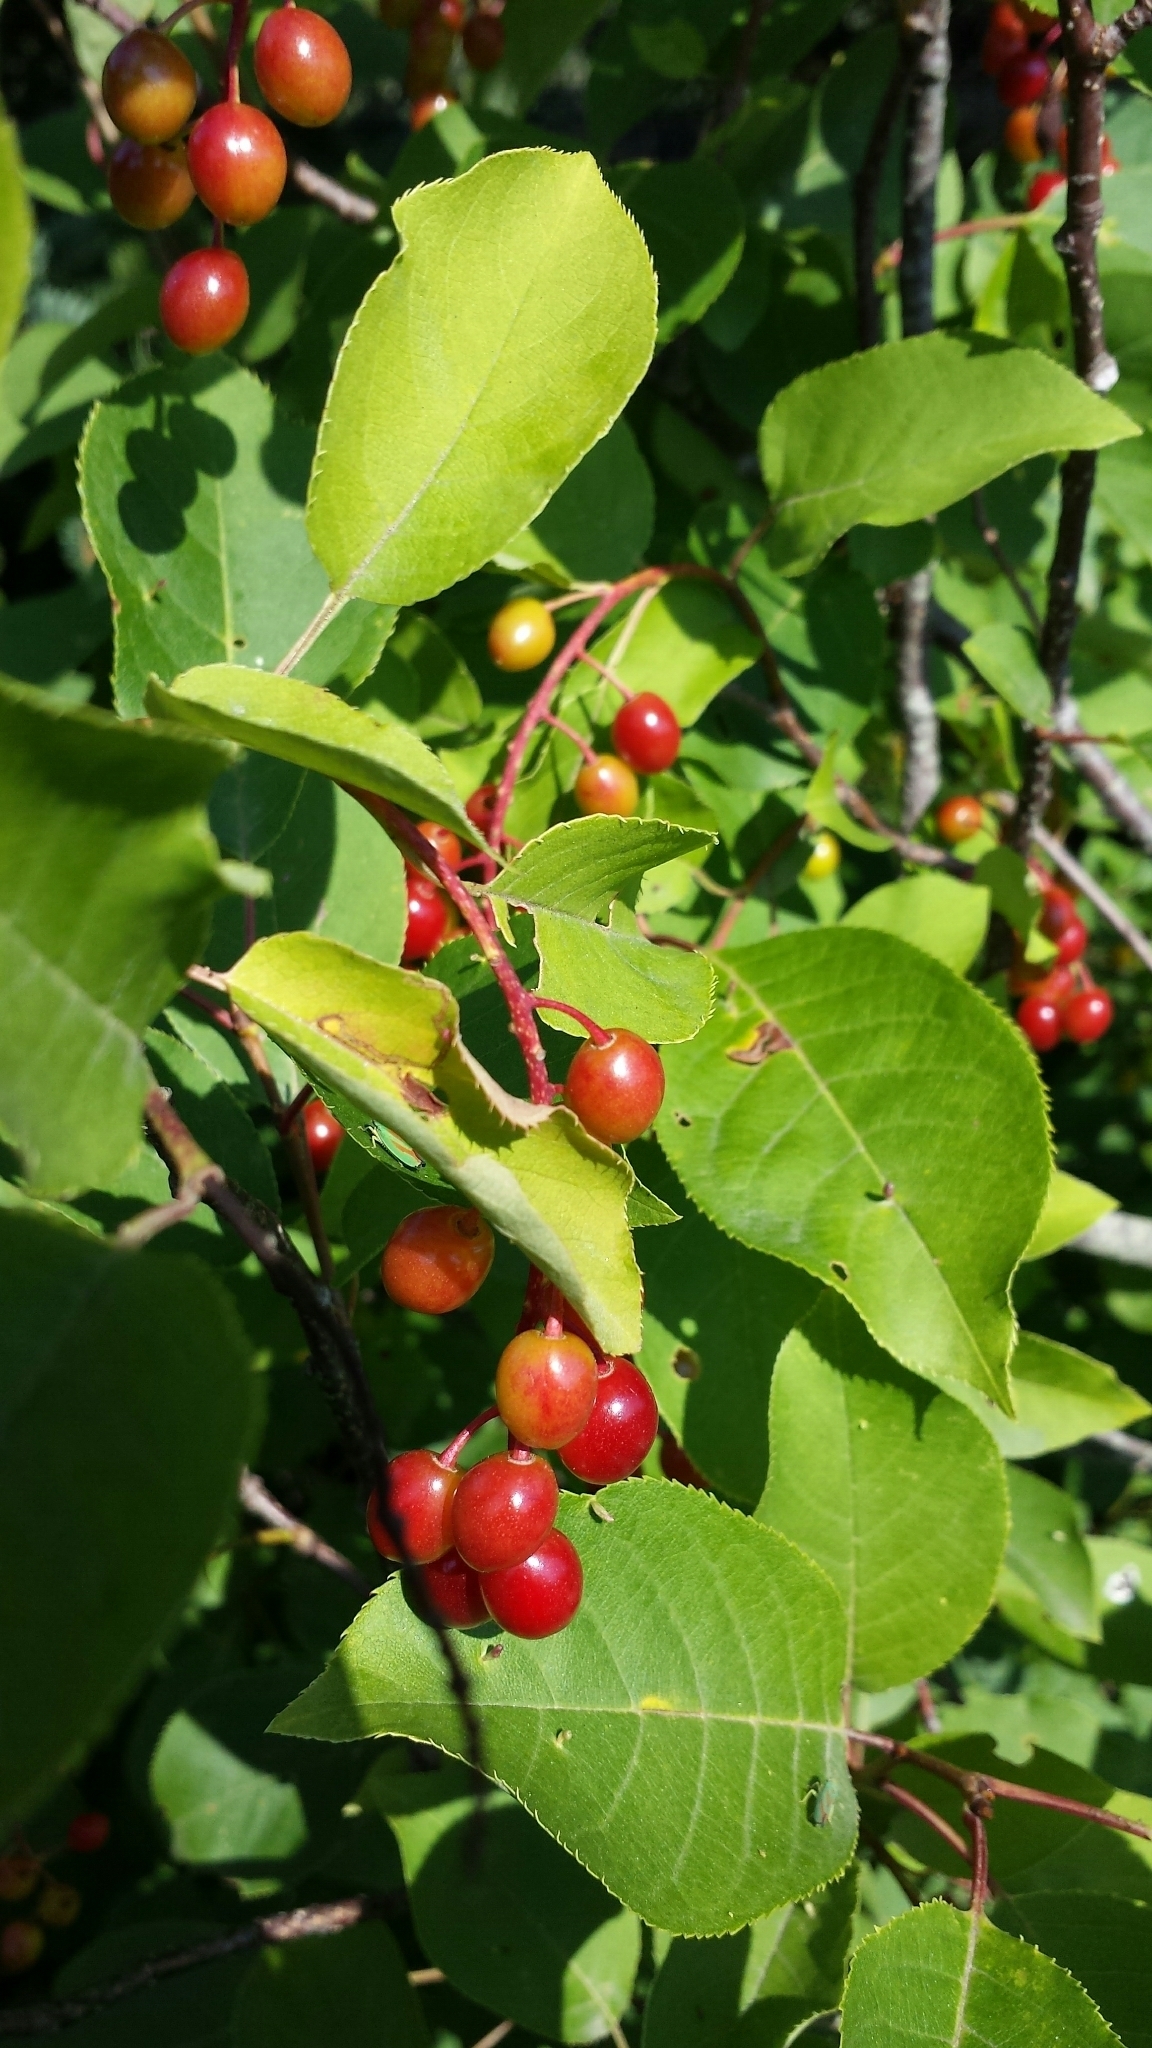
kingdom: Plantae
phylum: Tracheophyta
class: Magnoliopsida
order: Rosales
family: Rosaceae
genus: Prunus
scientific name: Prunus virginiana
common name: Chokecherry
